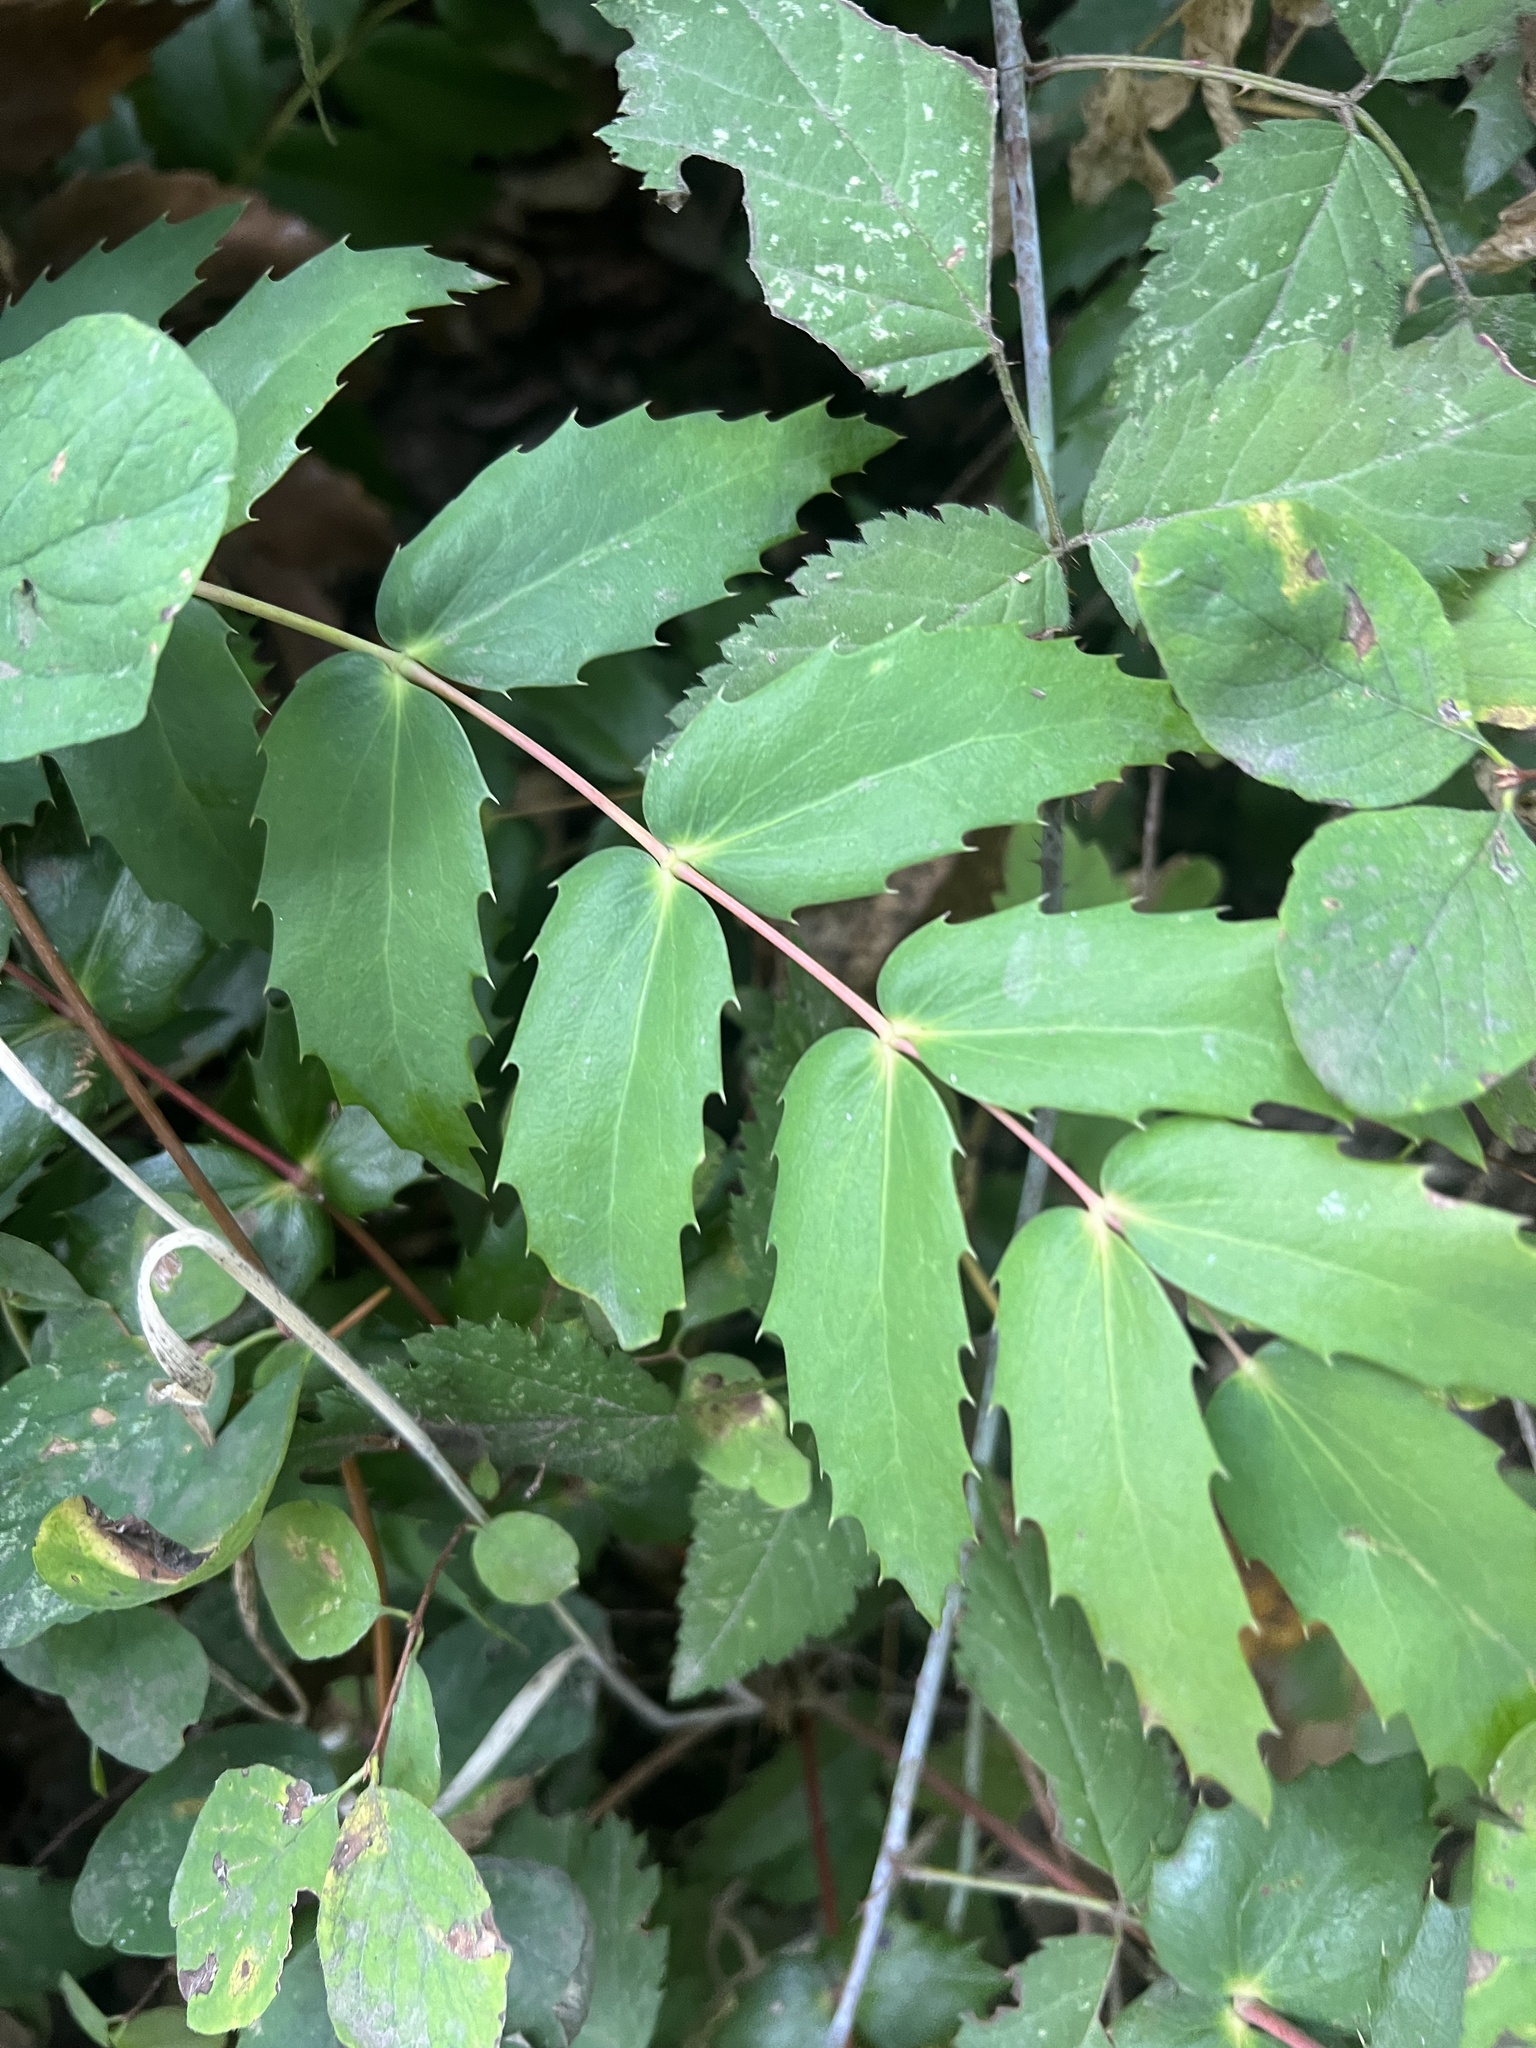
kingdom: Plantae
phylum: Tracheophyta
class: Magnoliopsida
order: Ranunculales
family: Berberidaceae
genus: Mahonia
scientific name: Mahonia nervosa
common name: Cascade oregon-grape
